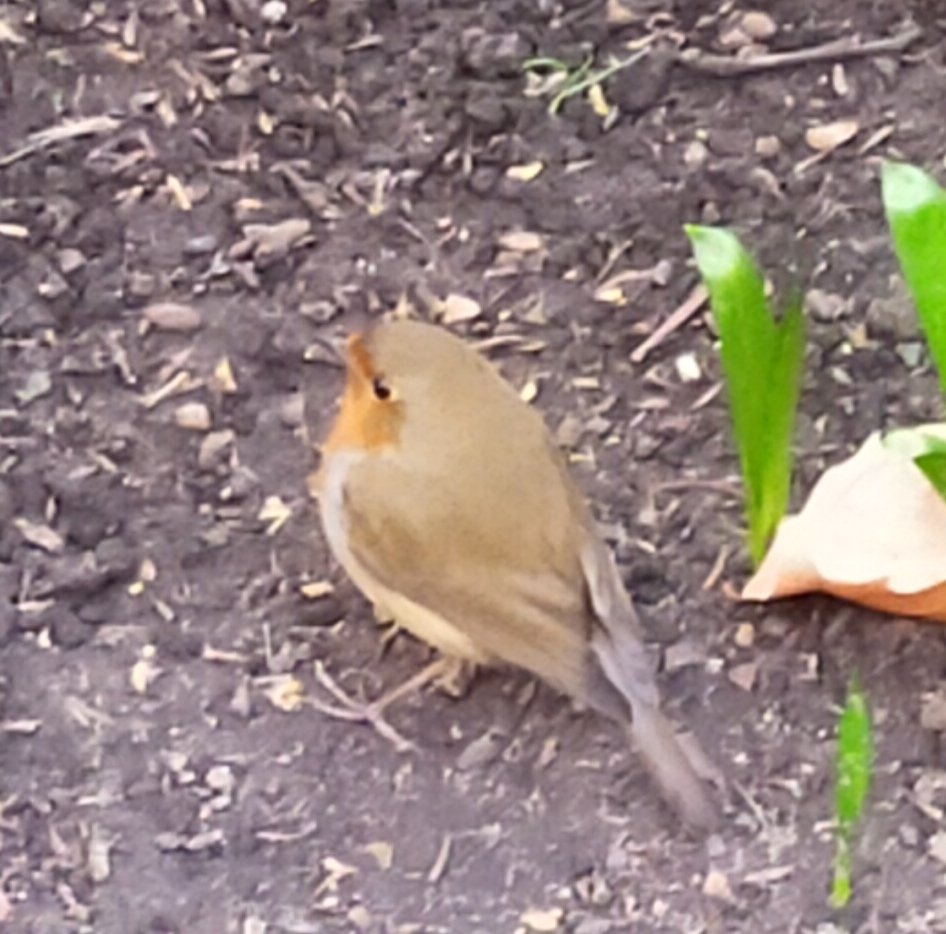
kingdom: Animalia
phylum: Chordata
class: Aves
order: Passeriformes
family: Muscicapidae
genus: Erithacus
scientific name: Erithacus rubecula
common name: European robin
